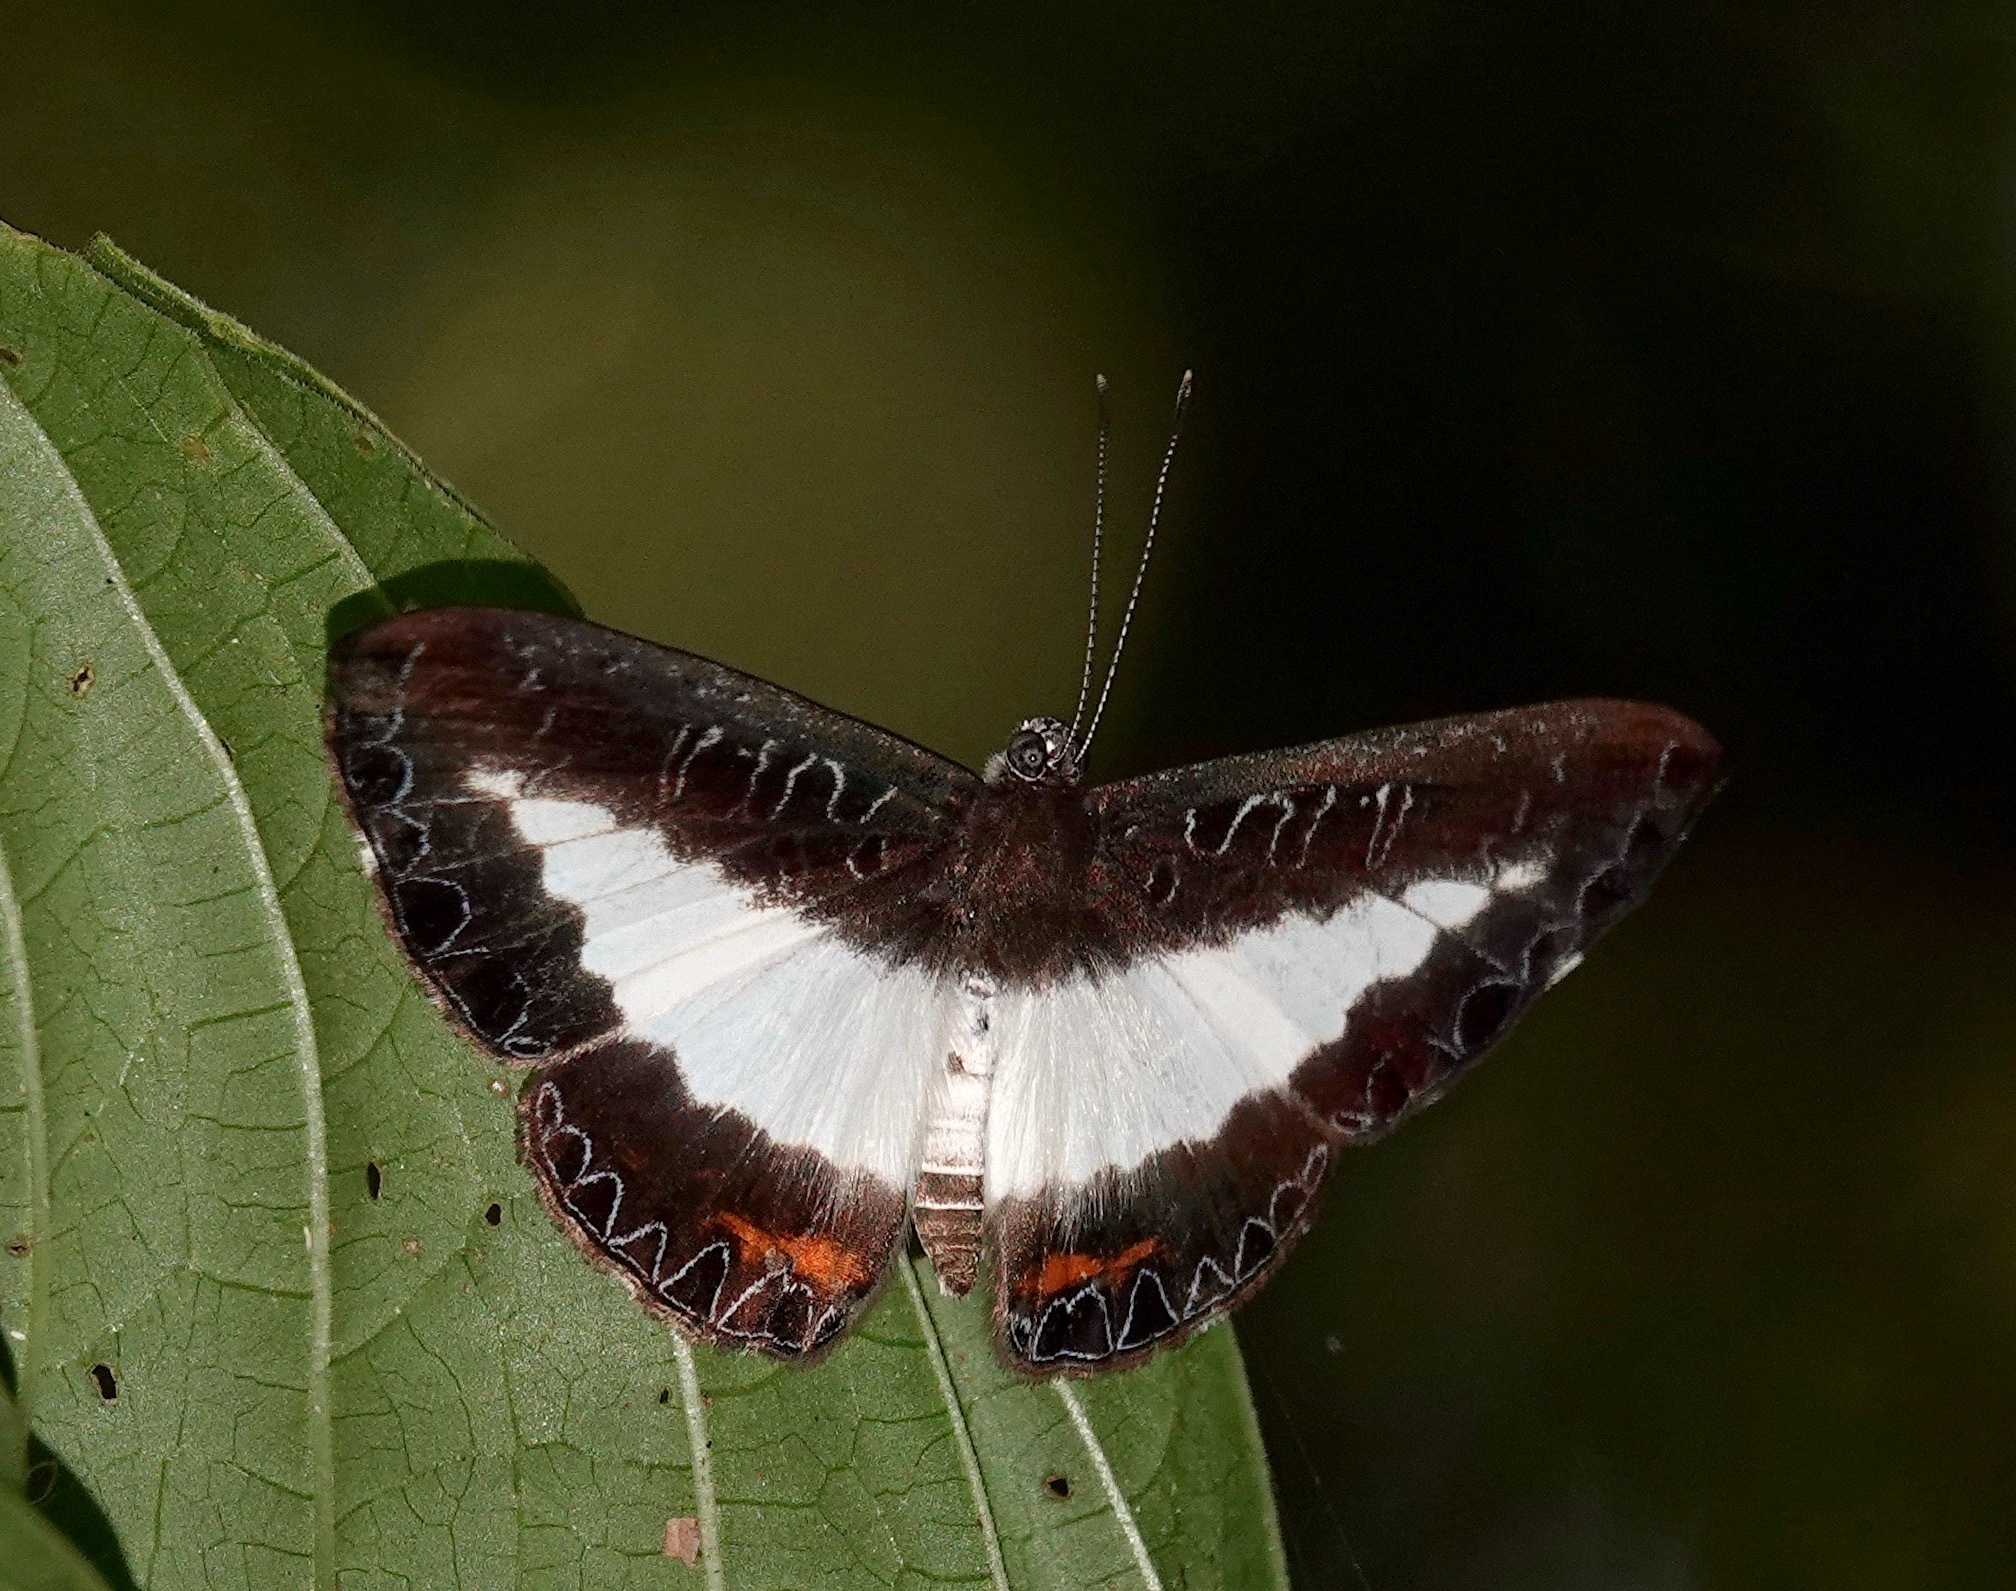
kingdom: Animalia
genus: Nymphidium
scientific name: Nymphidium azanoides
